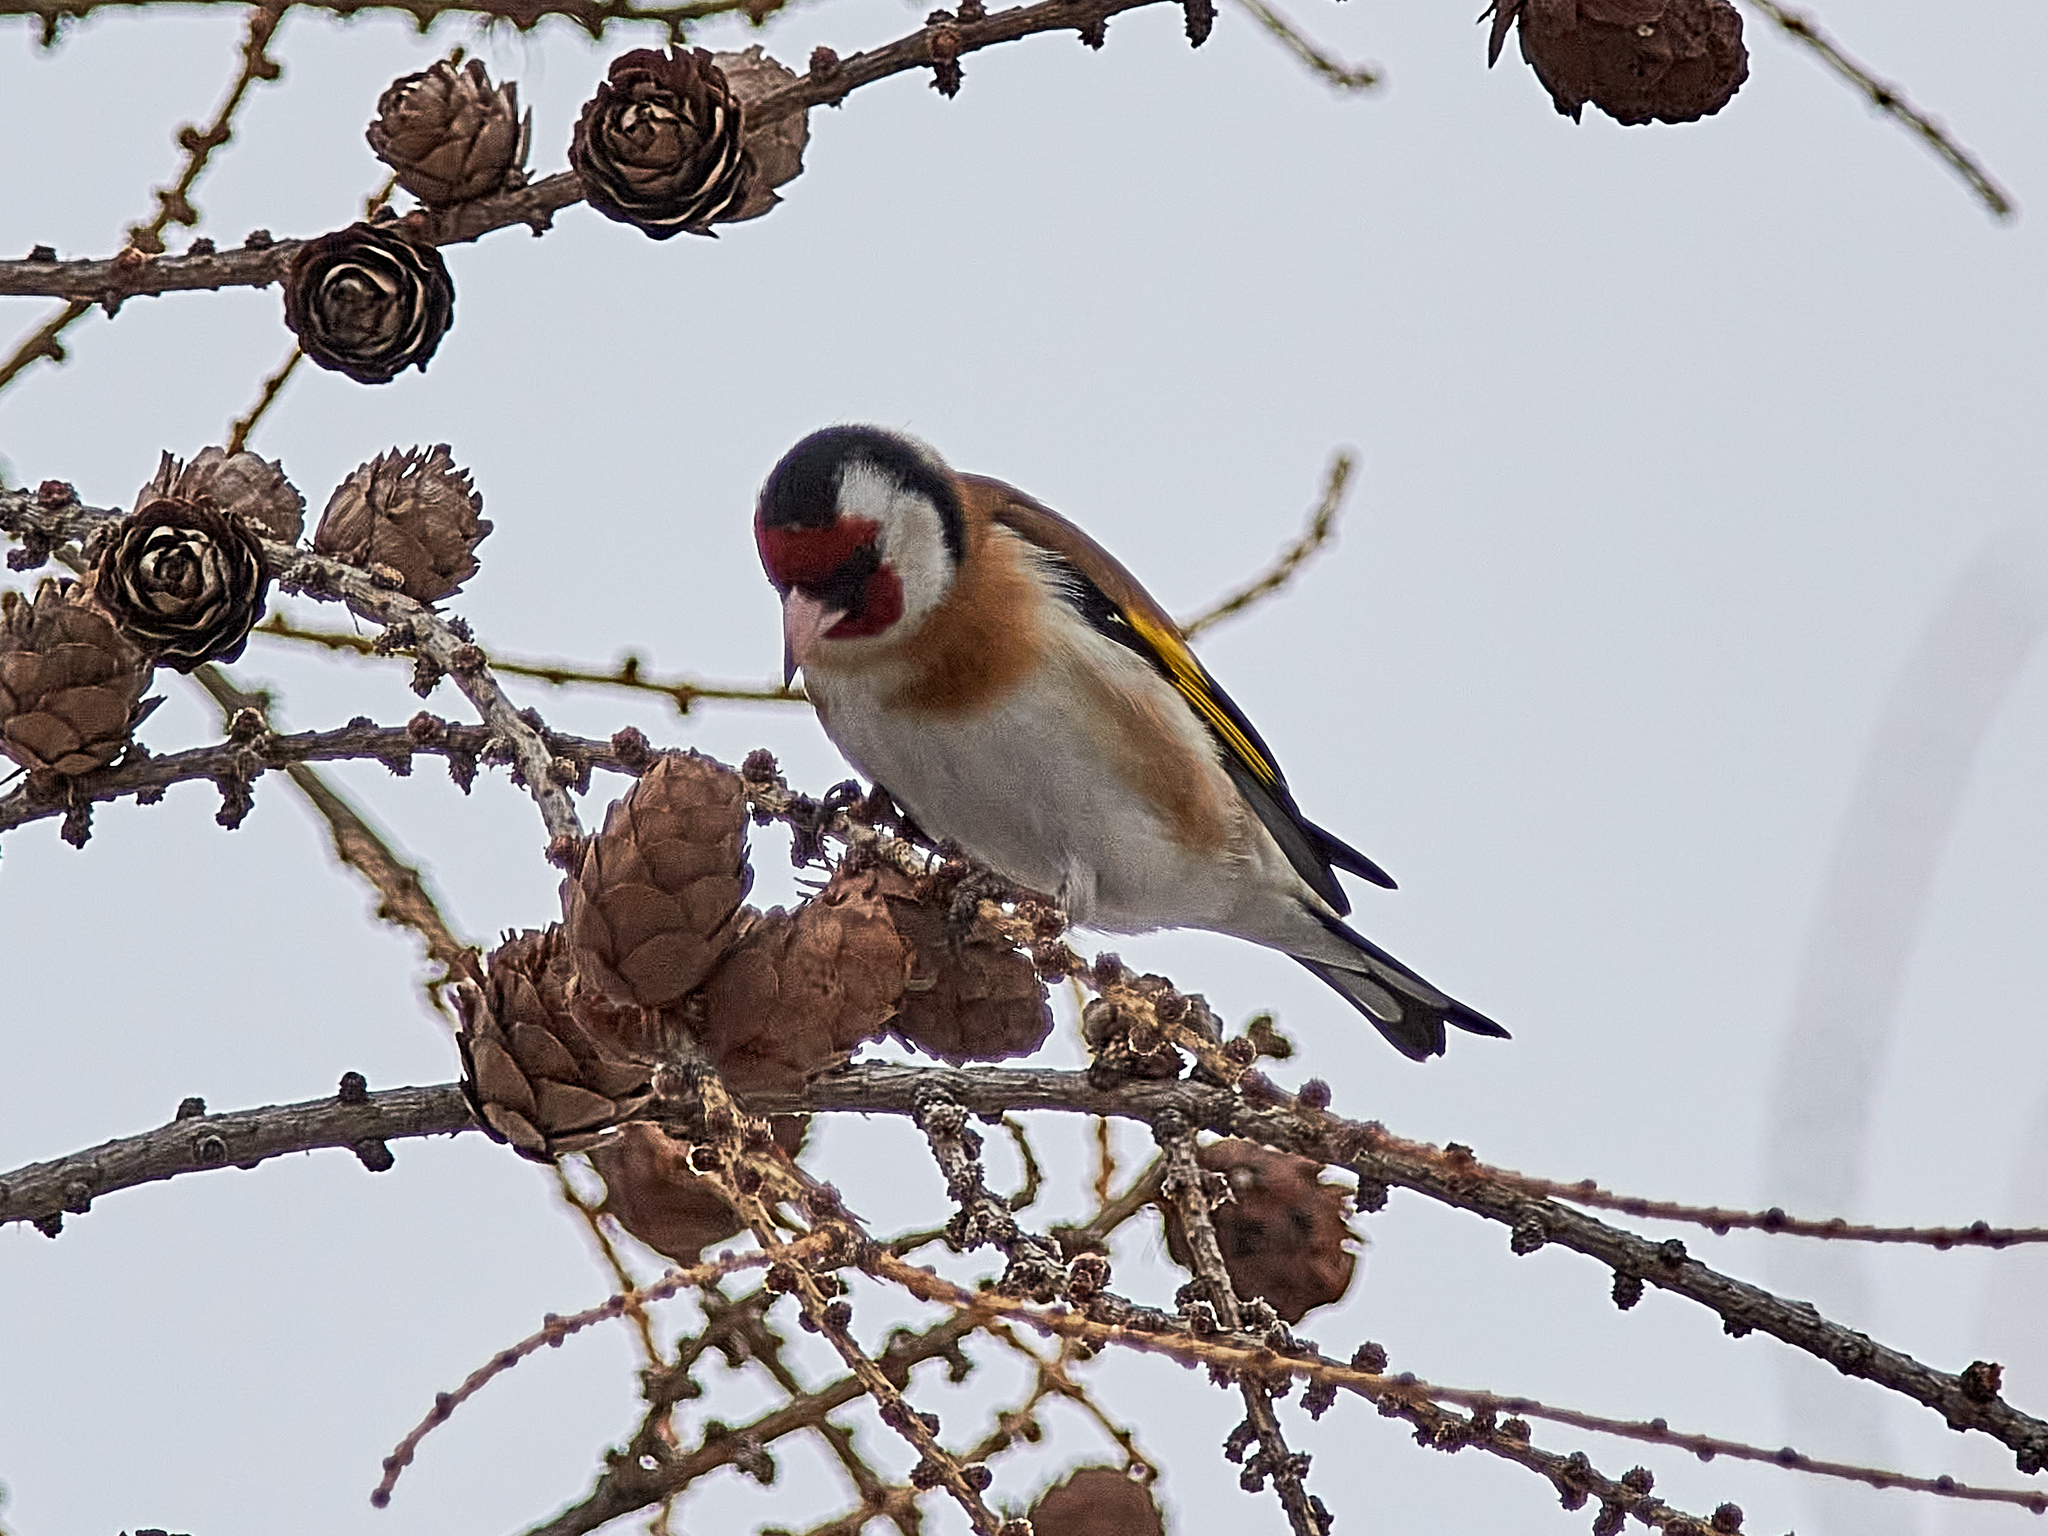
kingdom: Animalia
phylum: Chordata
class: Aves
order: Passeriformes
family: Fringillidae
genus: Carduelis
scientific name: Carduelis carduelis
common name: European goldfinch
